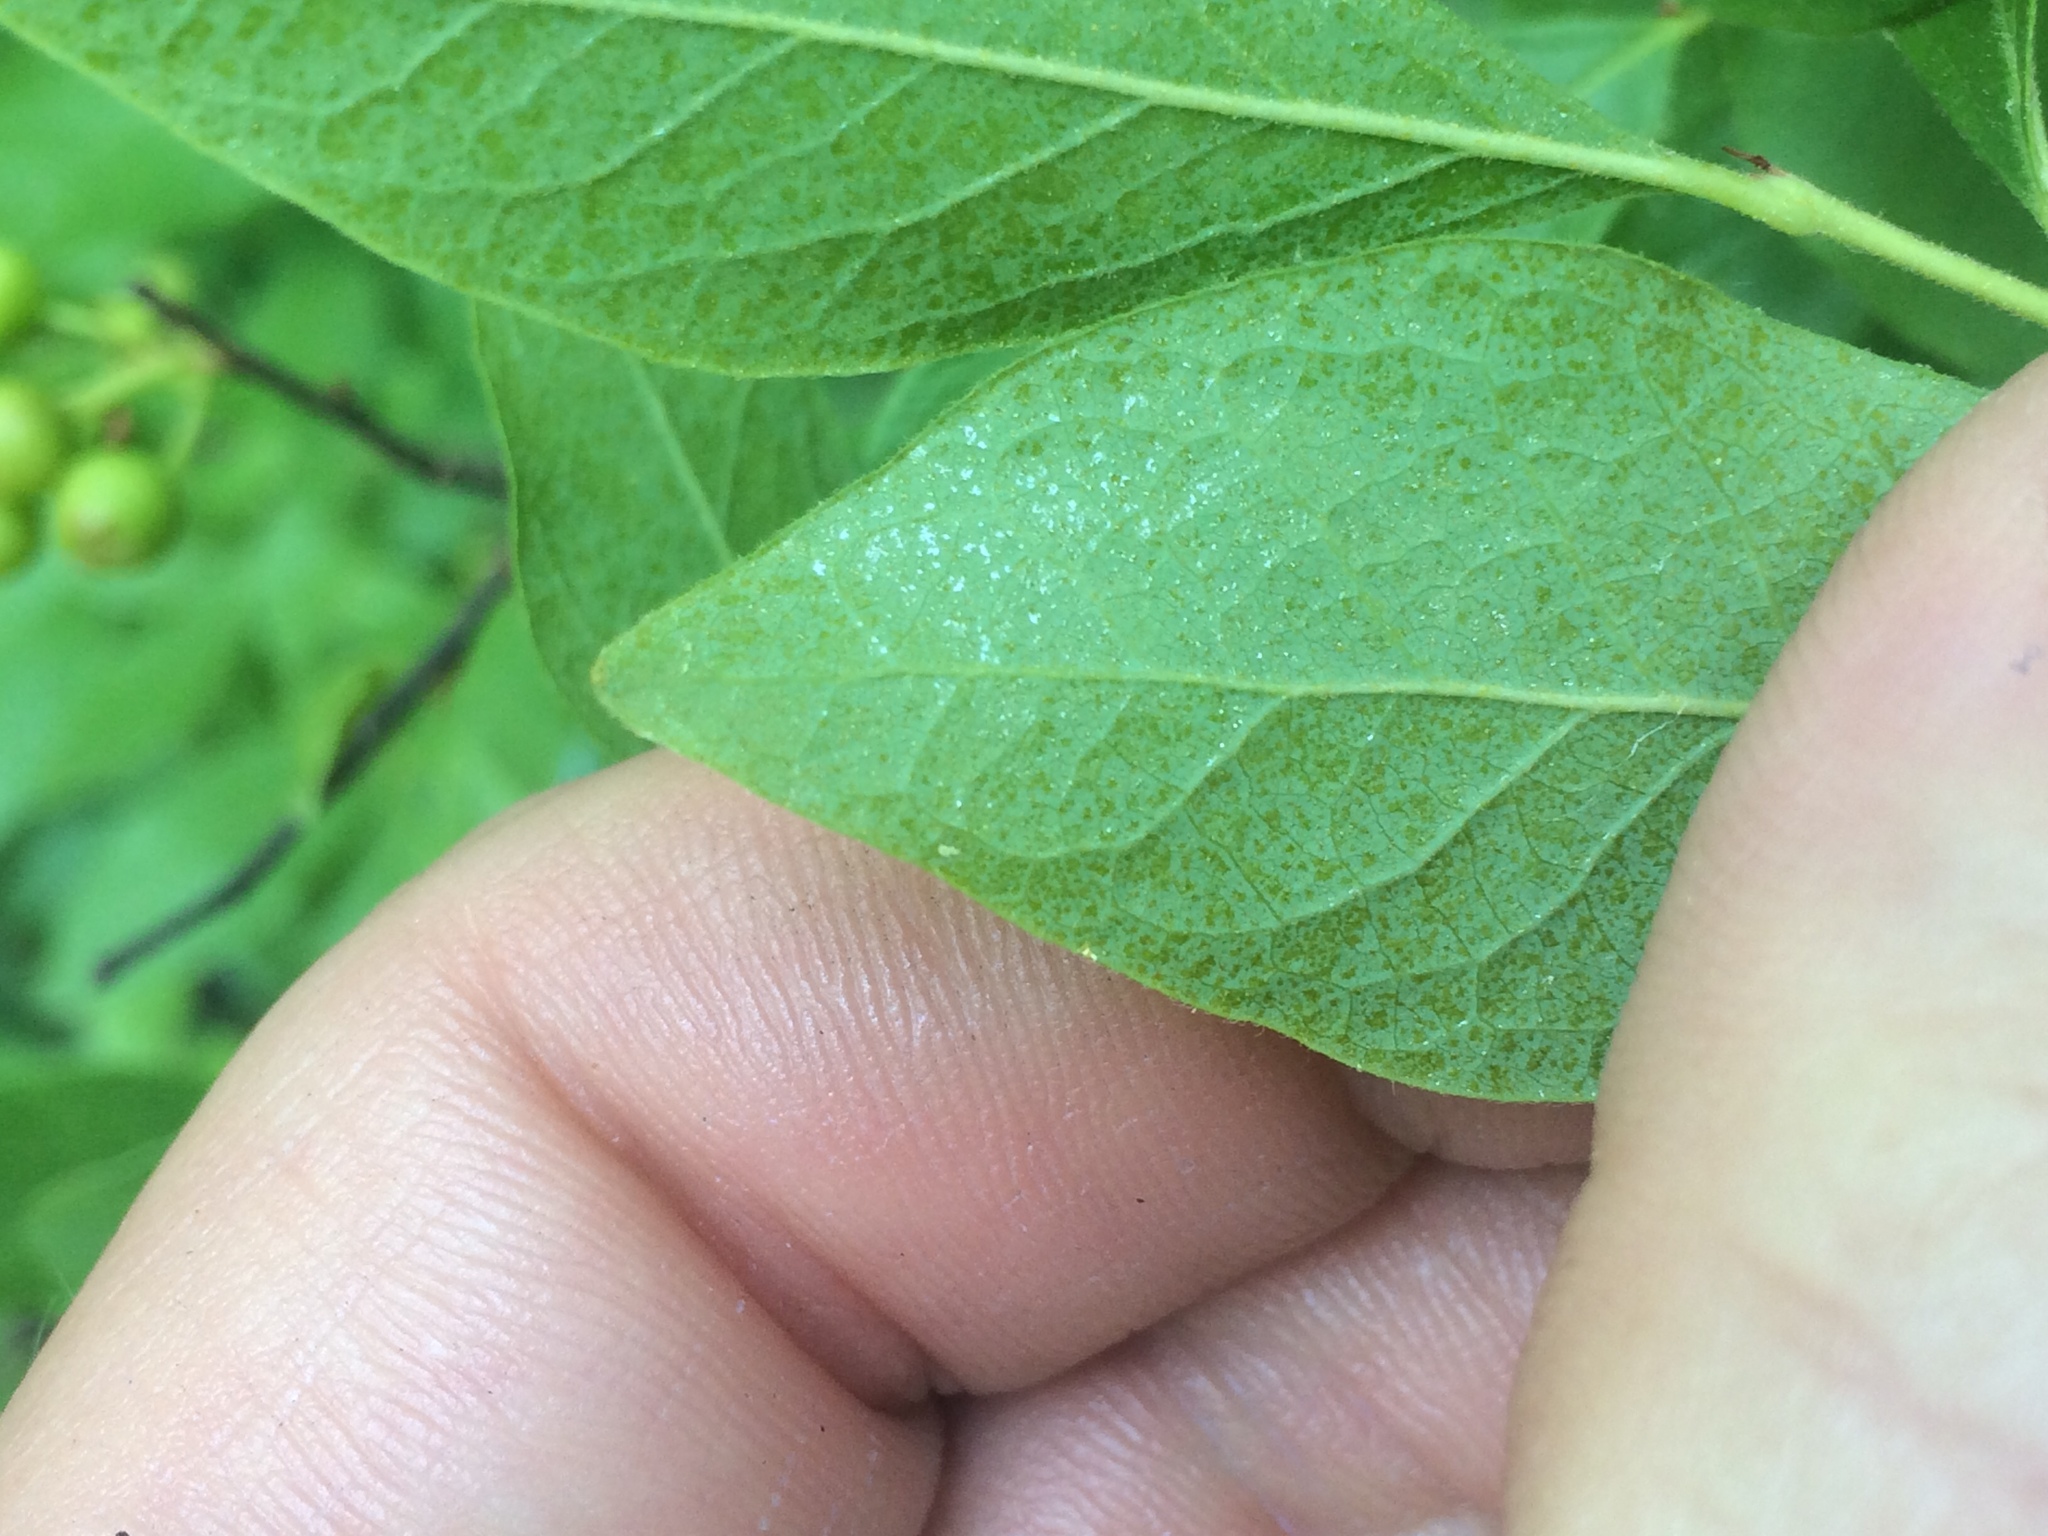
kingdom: Plantae
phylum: Tracheophyta
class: Magnoliopsida
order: Ericales
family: Ericaceae
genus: Gaylussacia
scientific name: Gaylussacia baccata
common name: Black huckleberry
